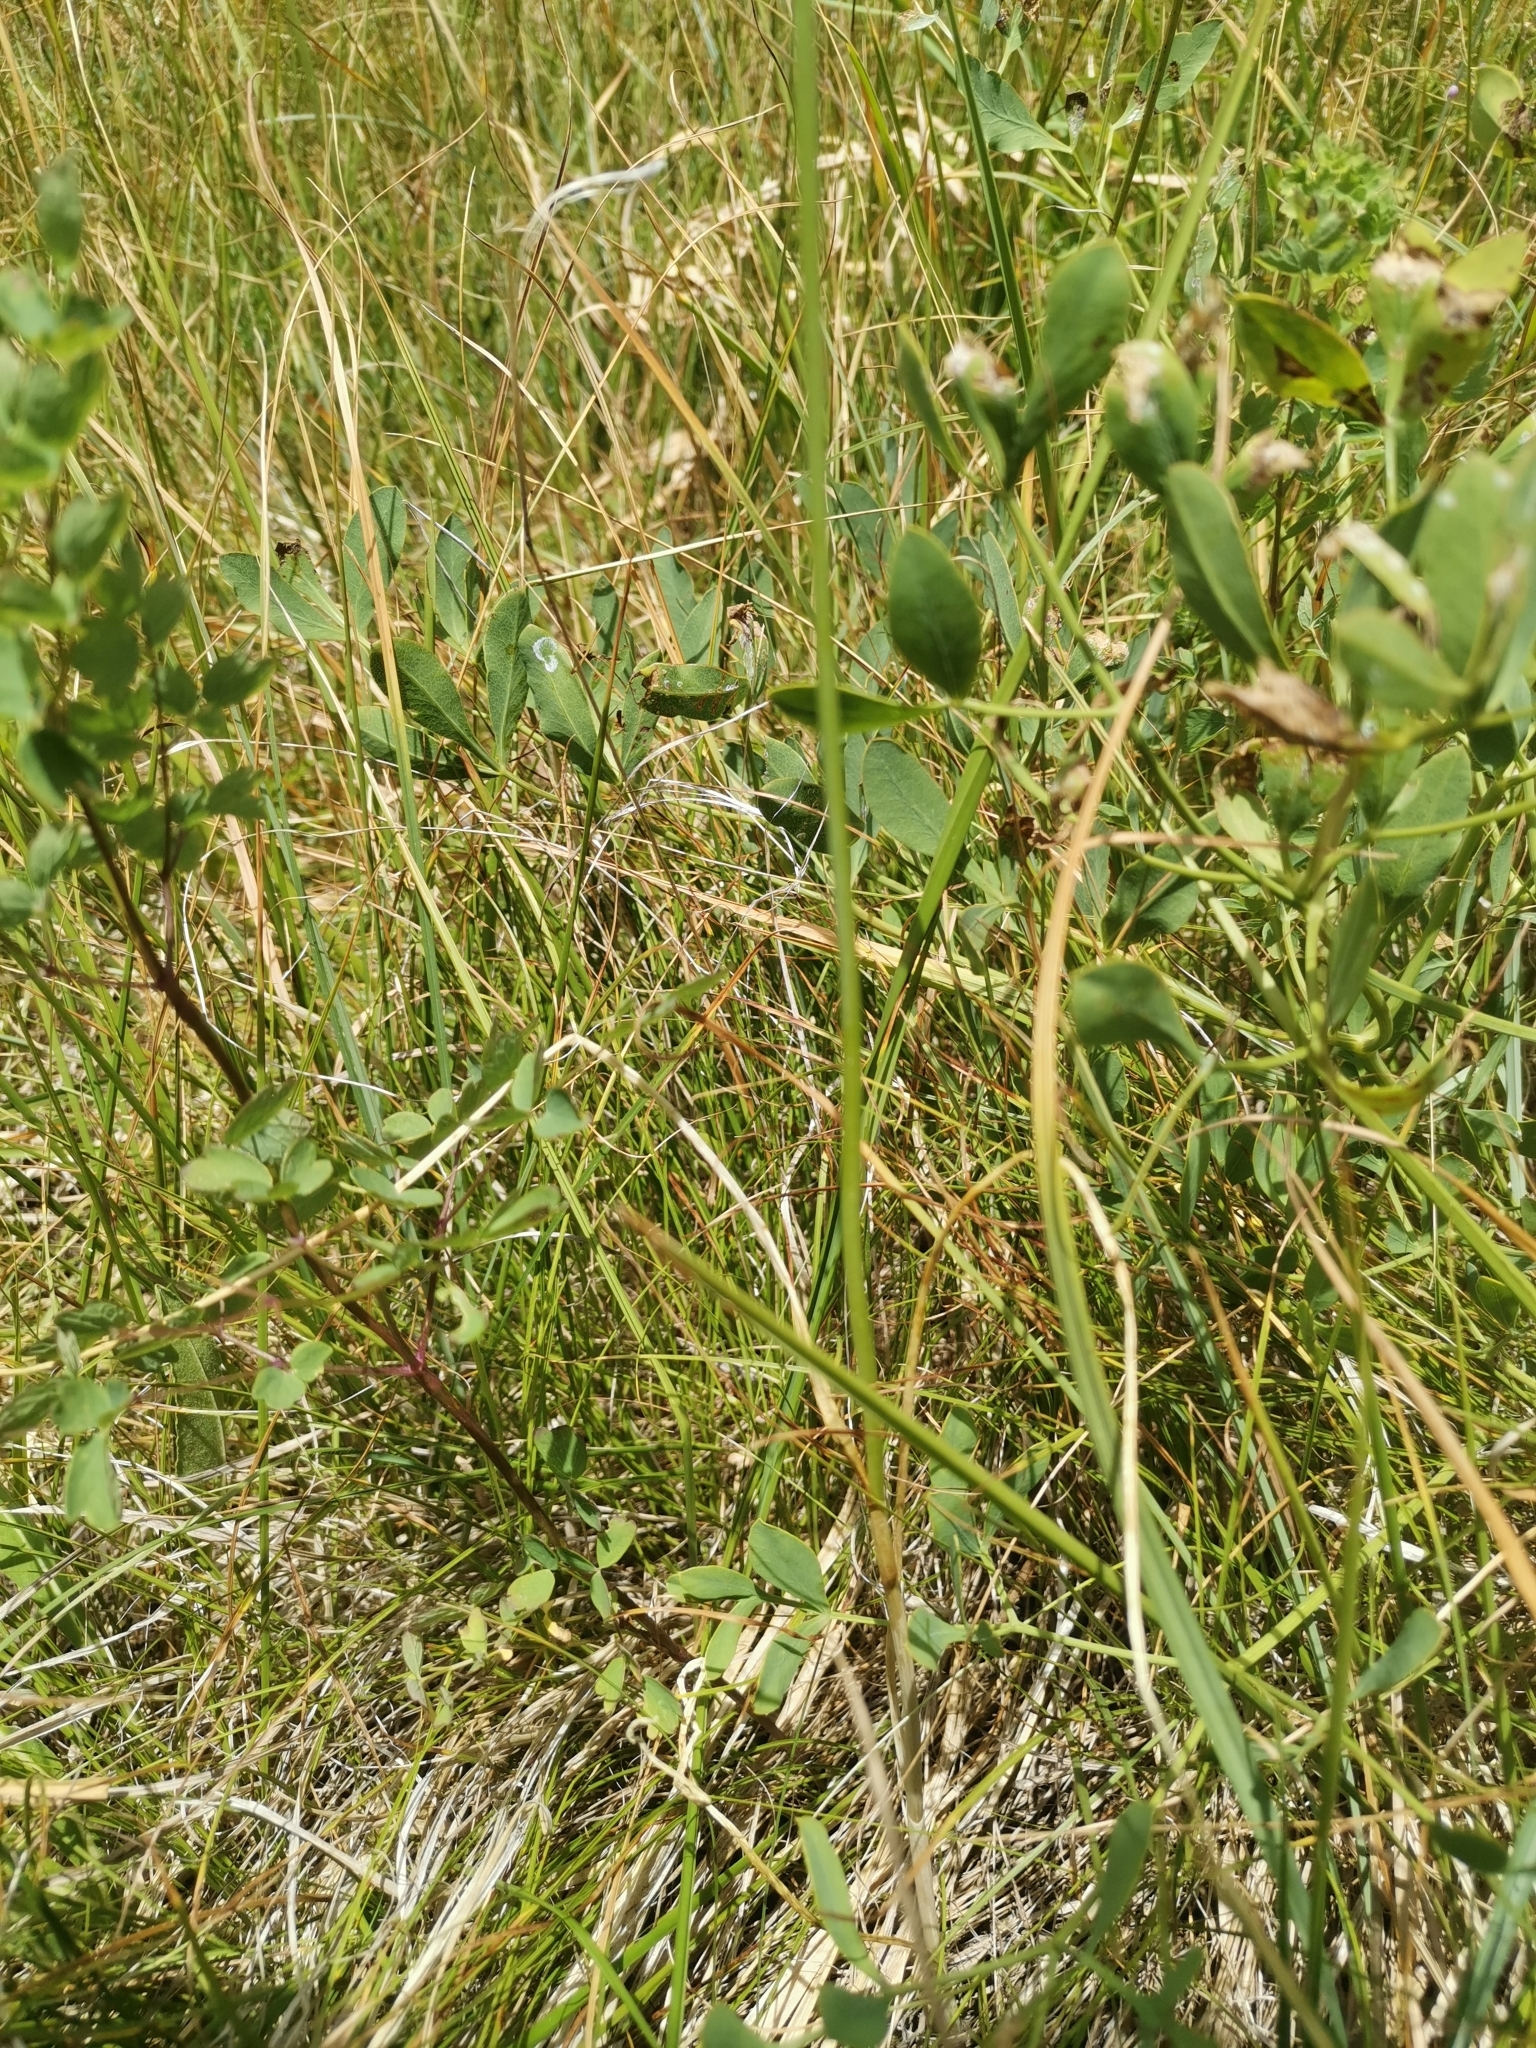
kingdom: Plantae
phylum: Tracheophyta
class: Liliopsida
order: Asparagales
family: Amaryllidaceae
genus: Allium
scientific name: Allium sphaerocephalon
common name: Round-headed leek
